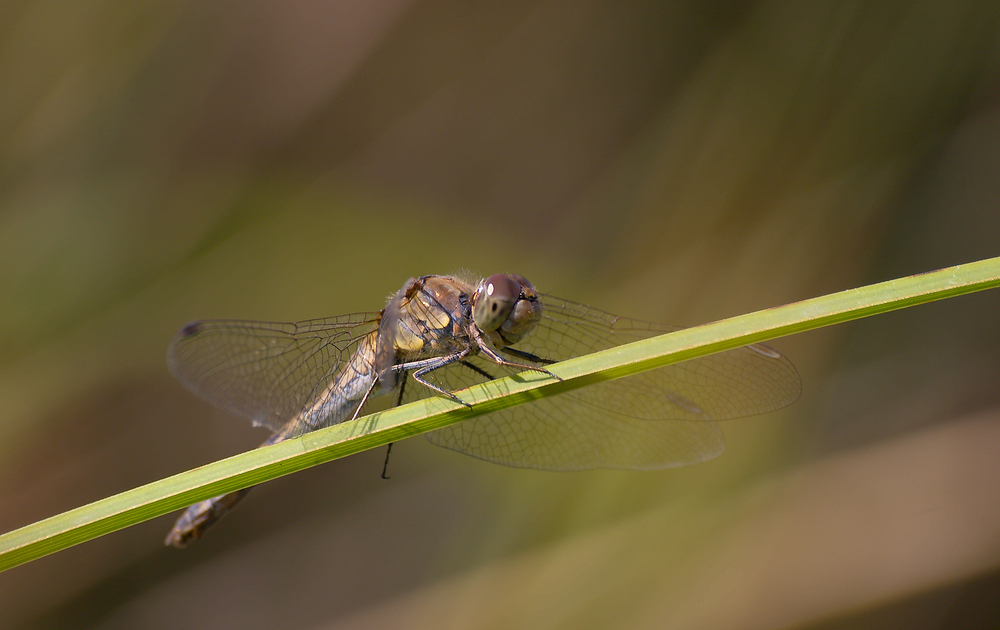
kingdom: Animalia
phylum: Arthropoda
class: Insecta
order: Odonata
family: Libellulidae
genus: Sympetrum
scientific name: Sympetrum striolatum
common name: Common darter
